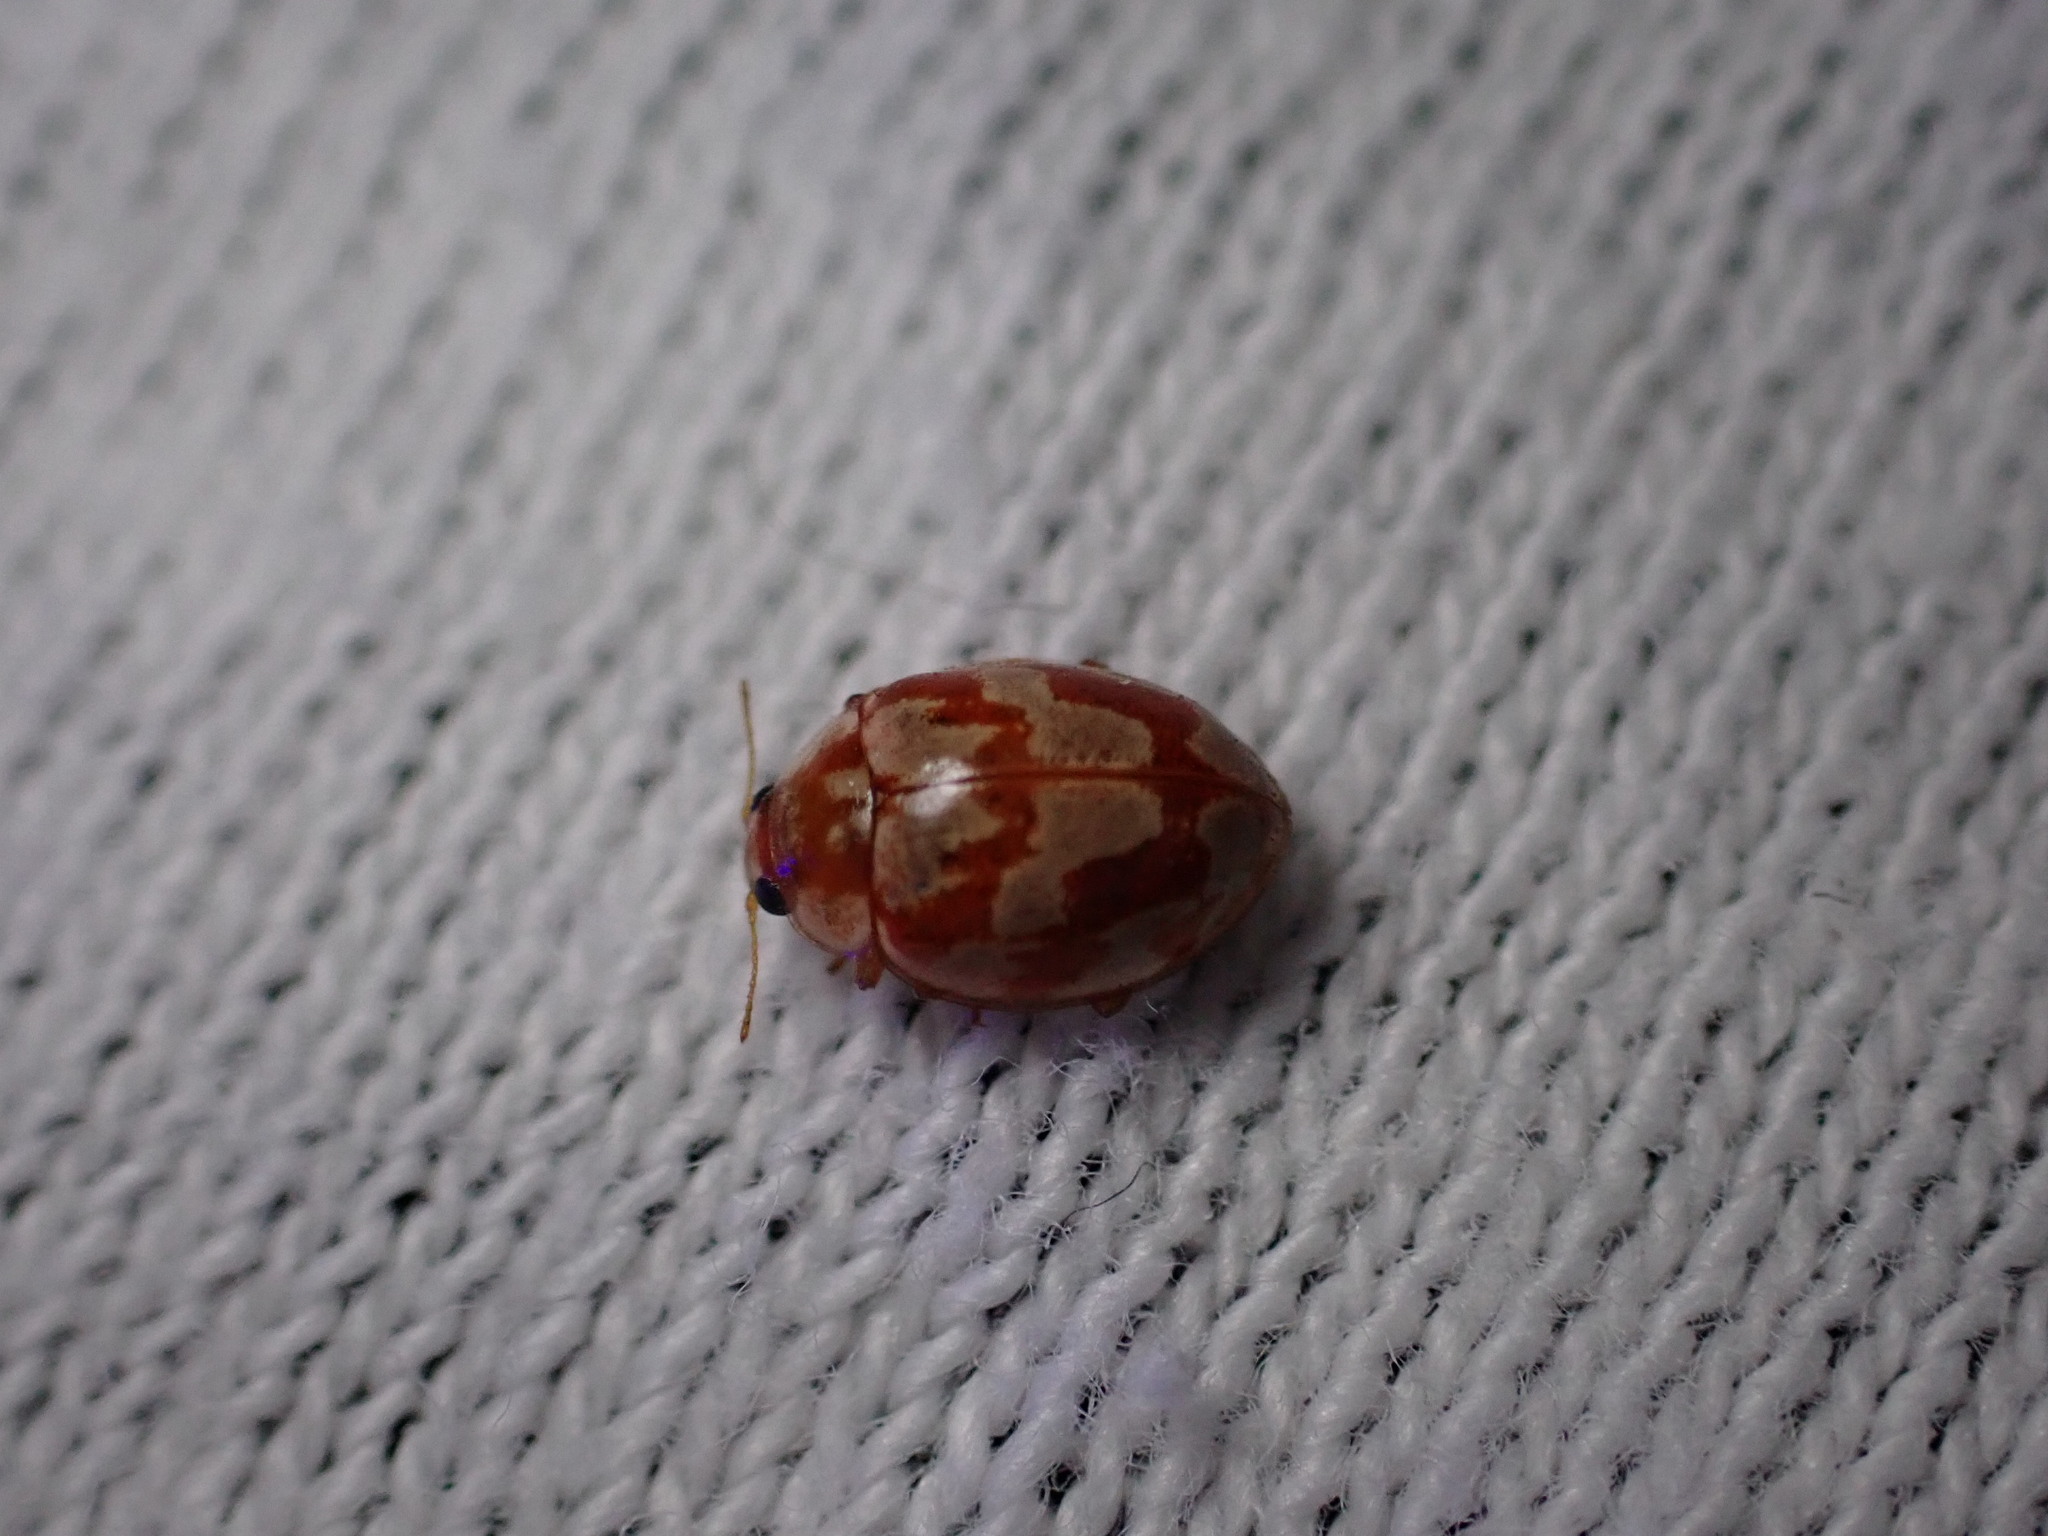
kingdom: Animalia
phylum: Arthropoda
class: Insecta
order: Coleoptera
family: Coccinellidae
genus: Myrrha
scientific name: Myrrha octodecimguttata
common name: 18-spot ladybird
